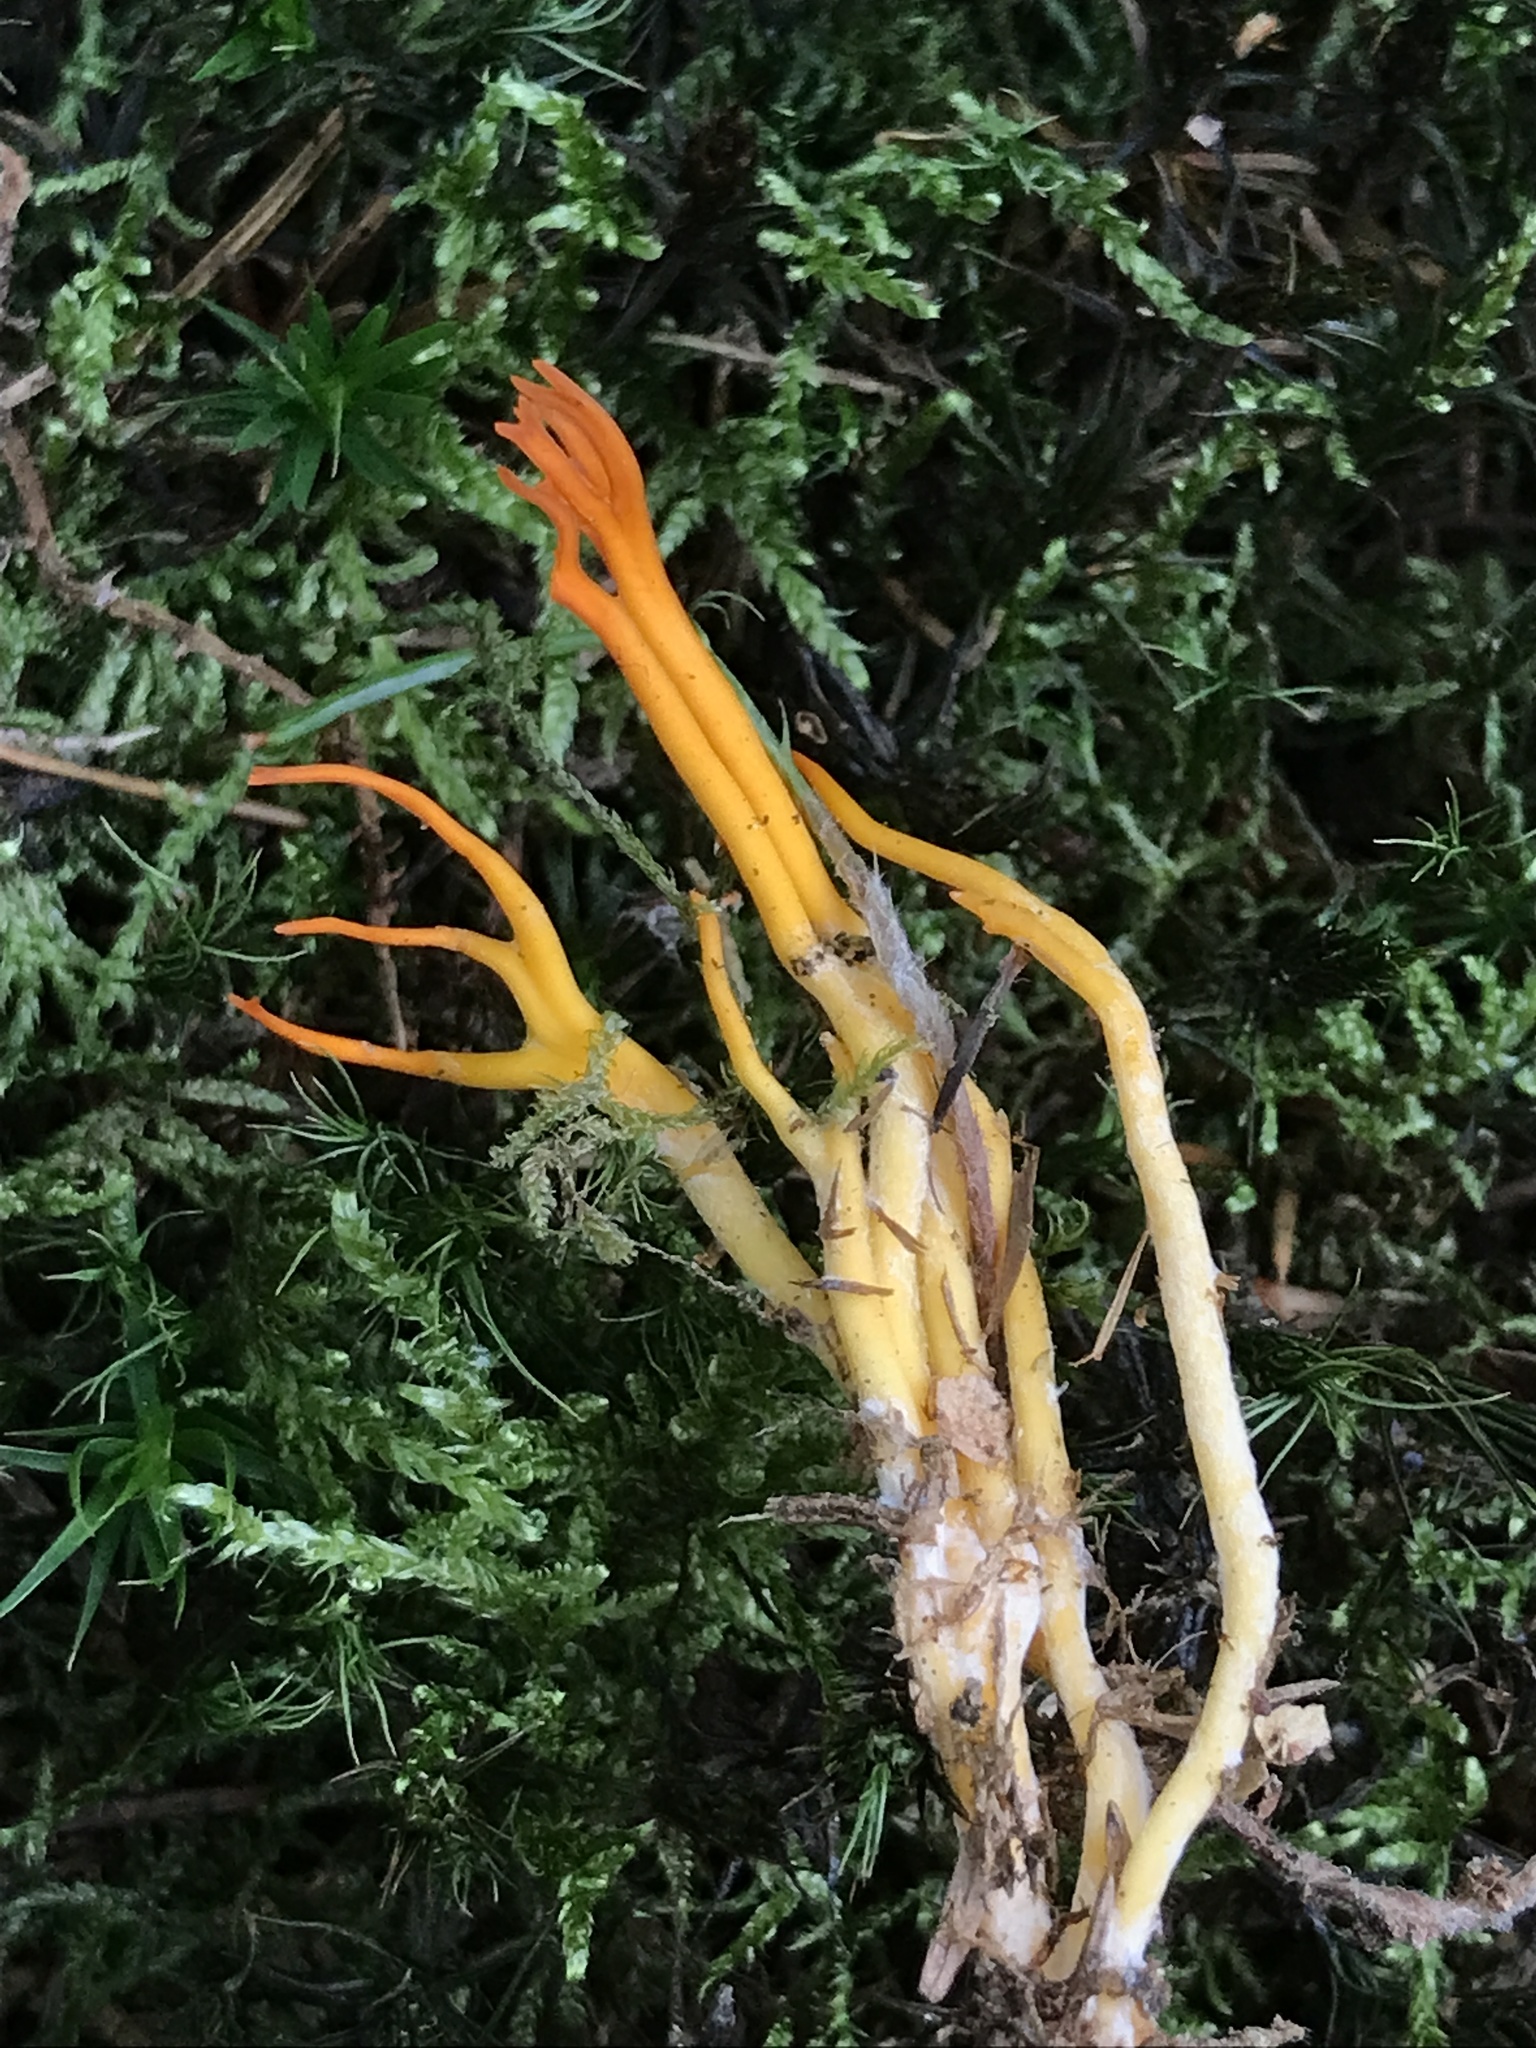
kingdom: Fungi
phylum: Basidiomycota
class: Dacrymycetes
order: Dacrymycetales
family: Dacrymycetaceae
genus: Calocera
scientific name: Calocera viscosa
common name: Yellow stagshorn
